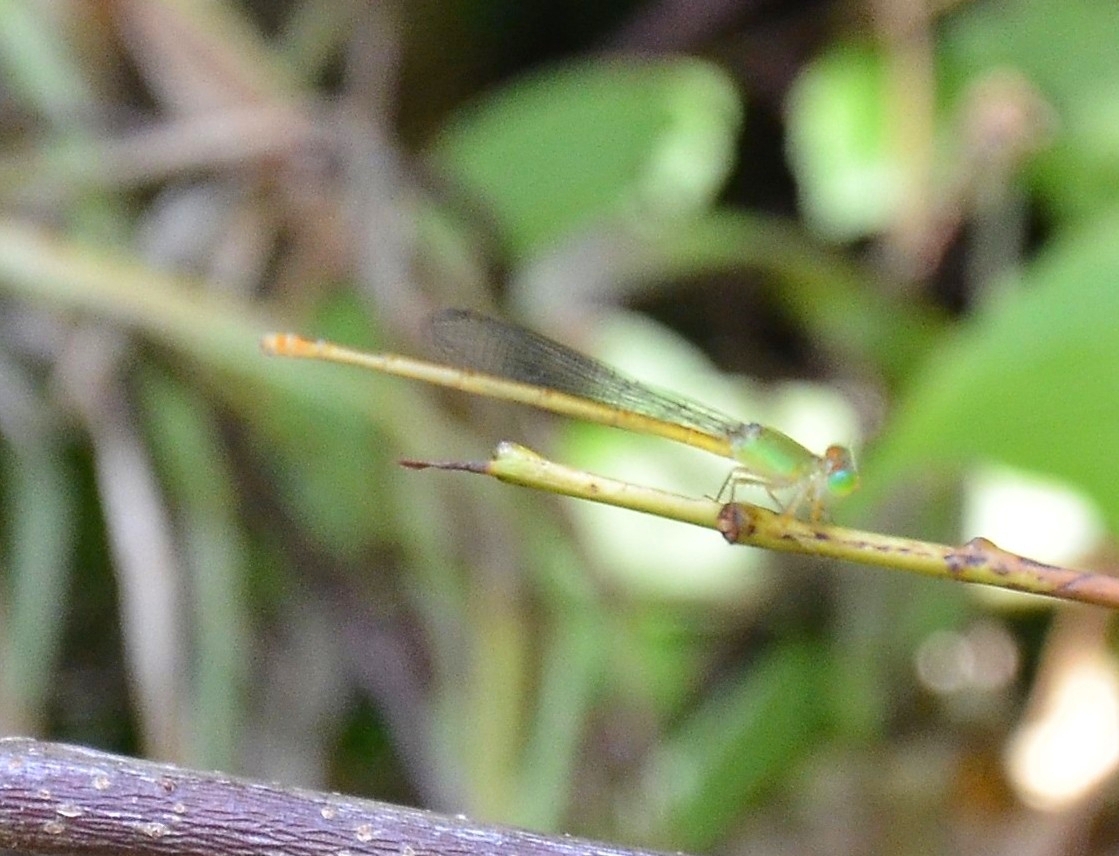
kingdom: Animalia
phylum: Arthropoda
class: Insecta
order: Odonata
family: Coenagrionidae
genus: Ceriagrion
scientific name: Ceriagrion coromandelianum
